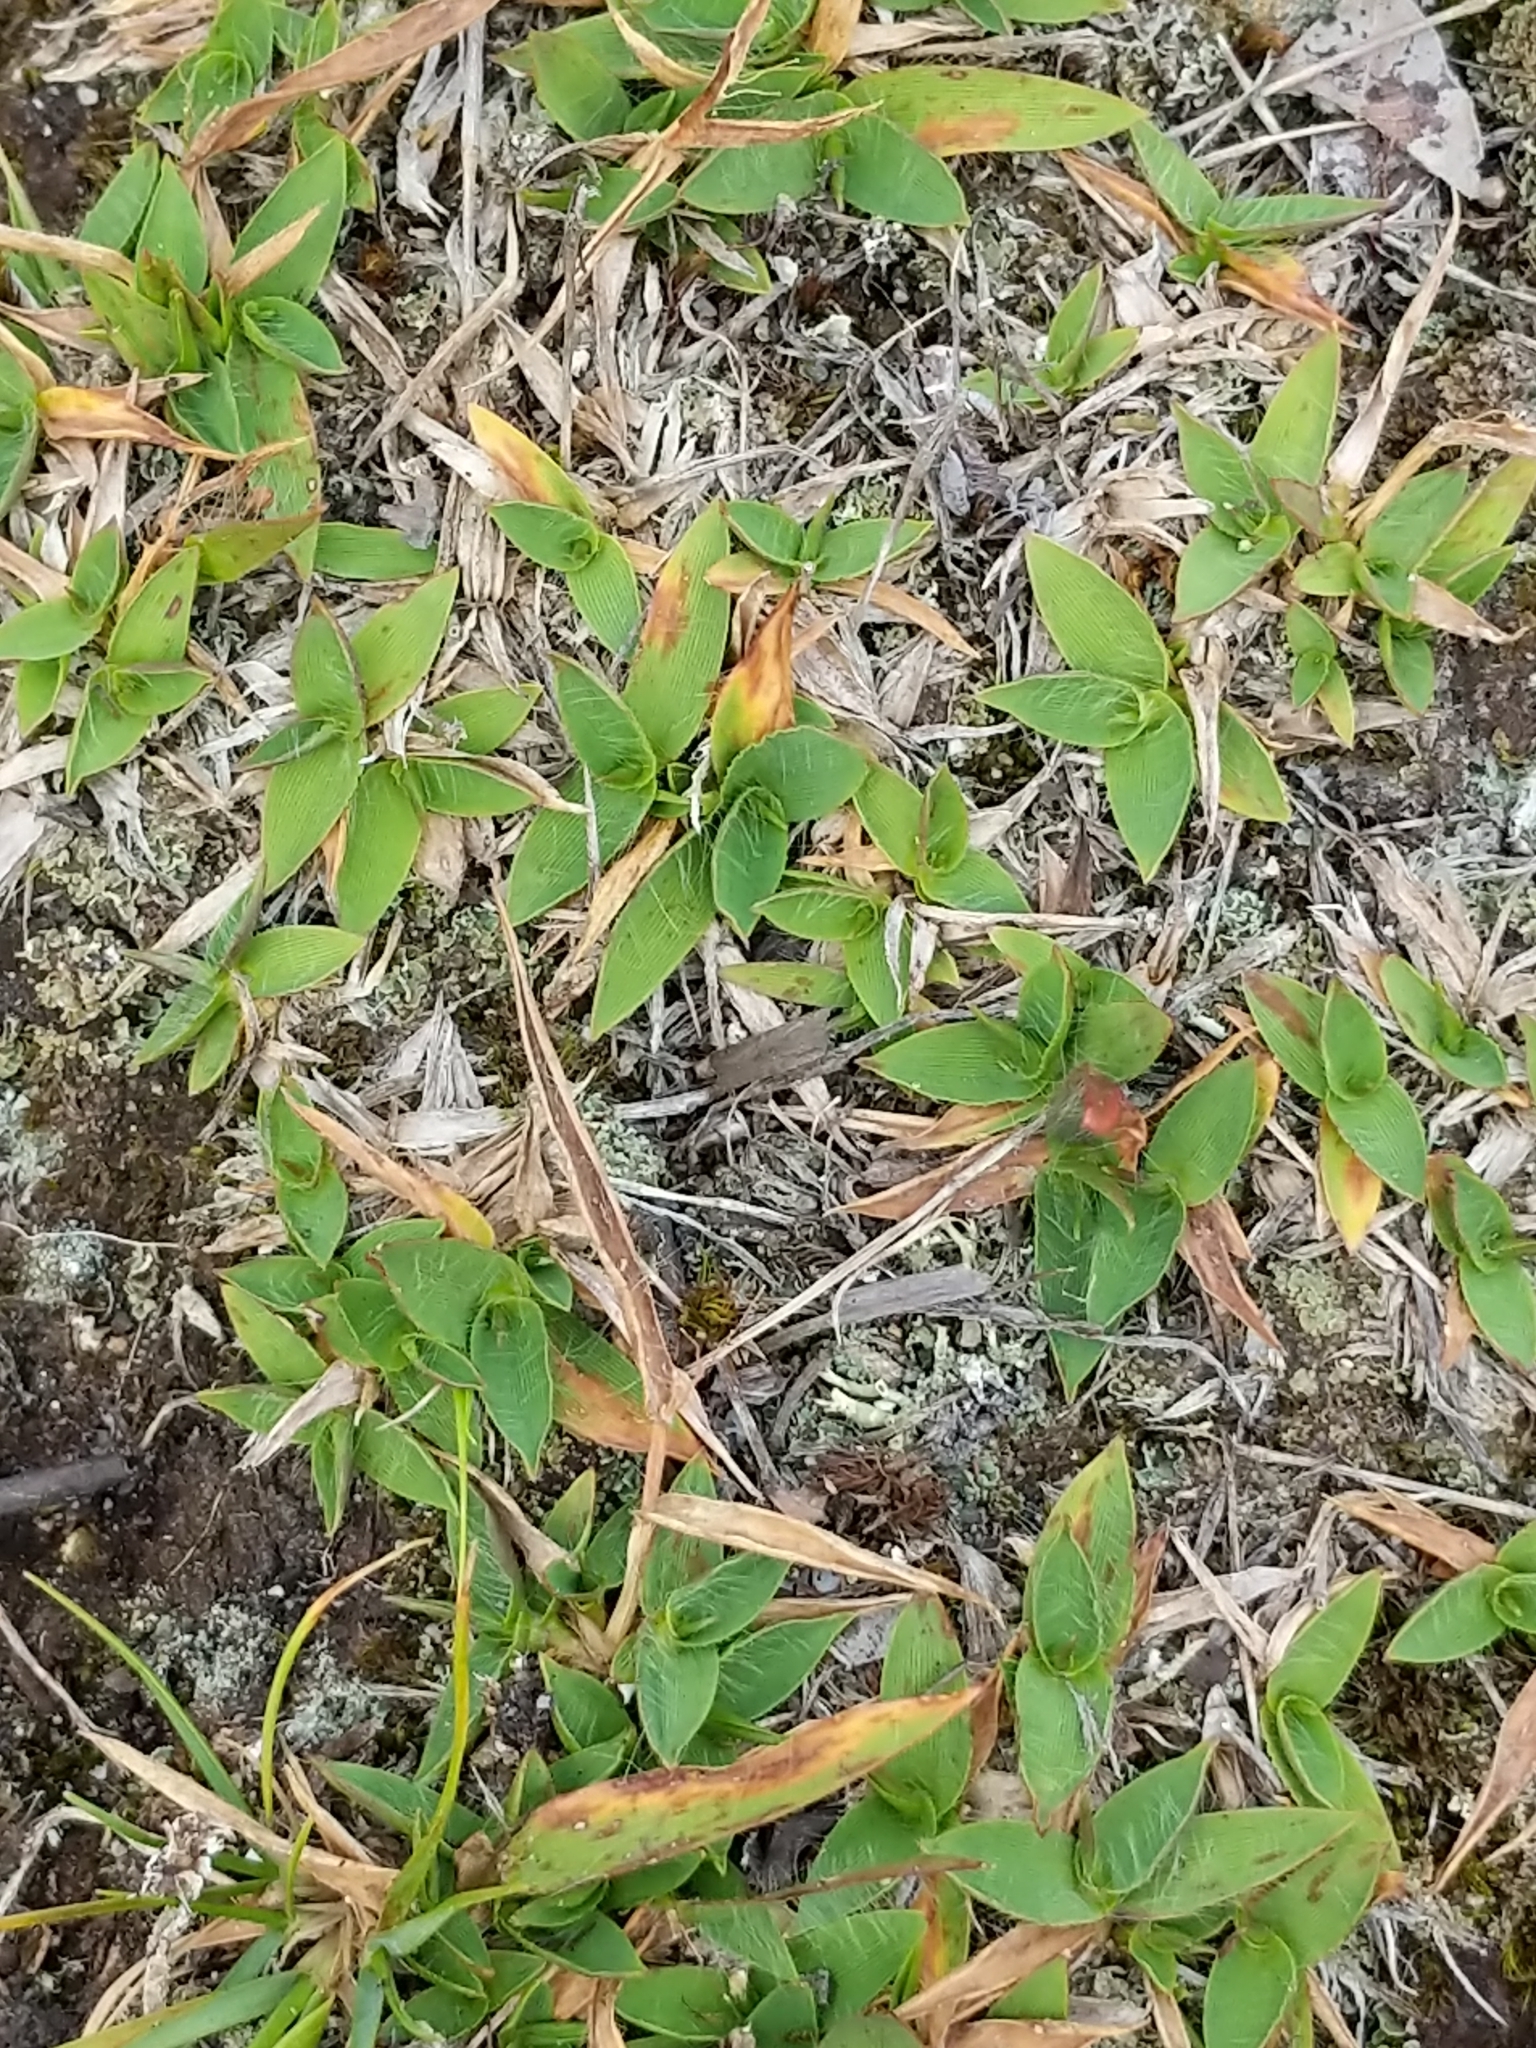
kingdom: Plantae
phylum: Tracheophyta
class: Liliopsida
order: Poales
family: Poaceae
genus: Dichanthelium
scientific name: Dichanthelium
